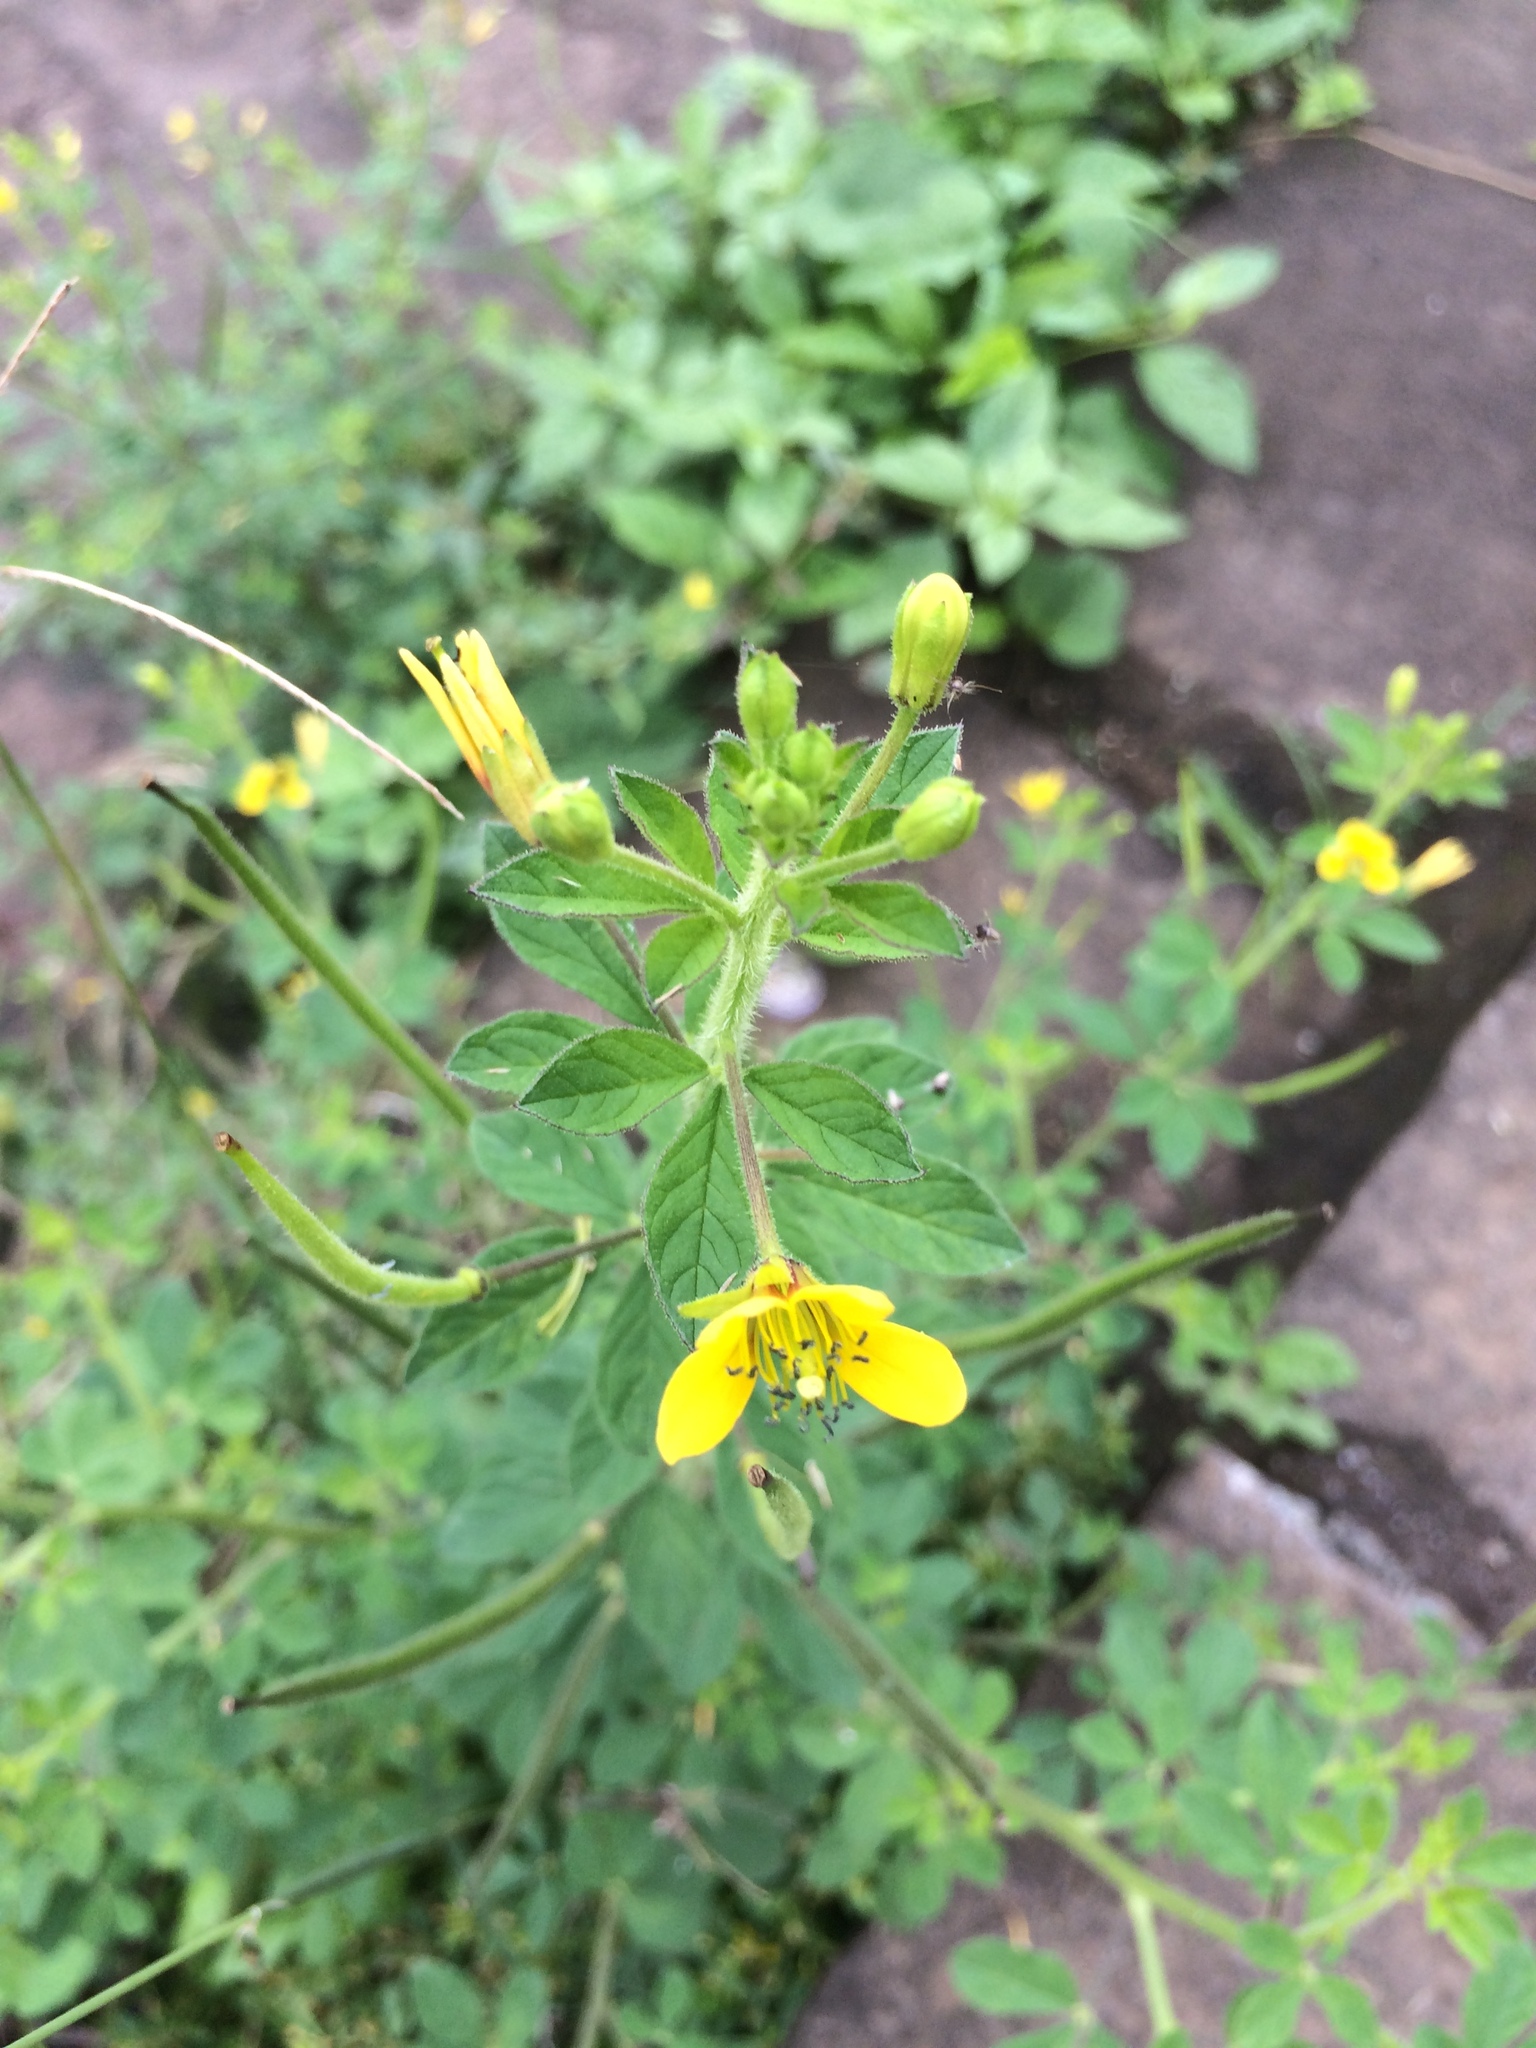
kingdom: Plantae
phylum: Tracheophyta
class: Magnoliopsida
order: Brassicales
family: Cleomaceae
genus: Arivela
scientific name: Arivela viscosa
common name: Asian spiderflower
